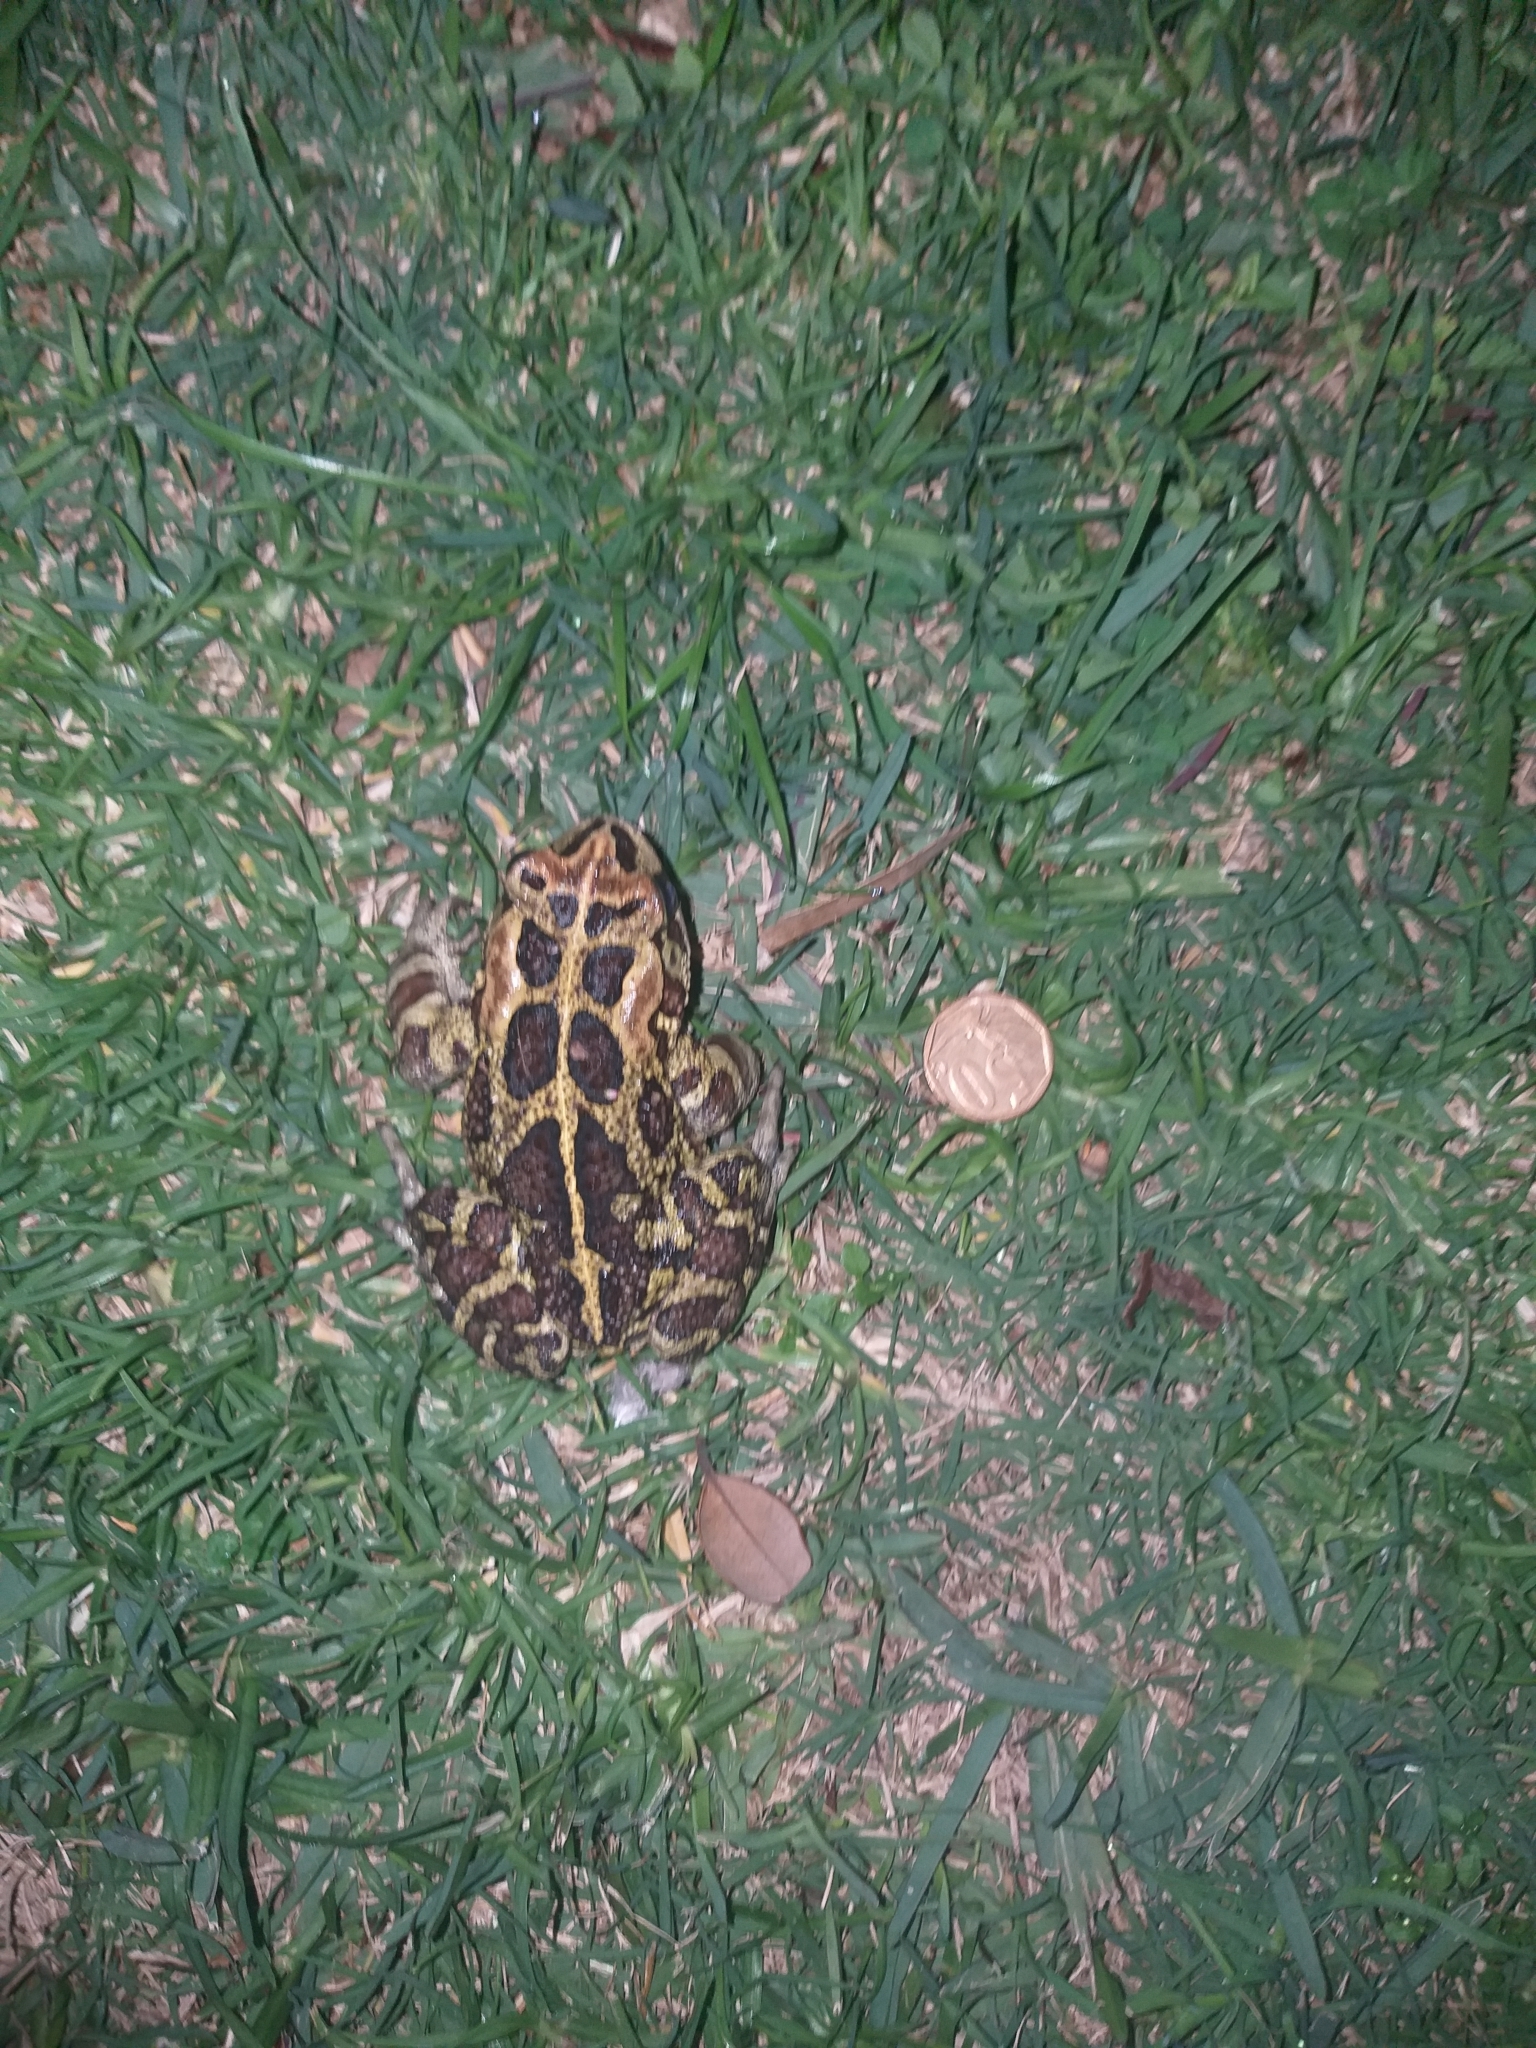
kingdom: Animalia
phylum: Chordata
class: Amphibia
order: Anura
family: Bufonidae
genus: Sclerophrys
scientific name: Sclerophrys pantherina
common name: Panther toad
